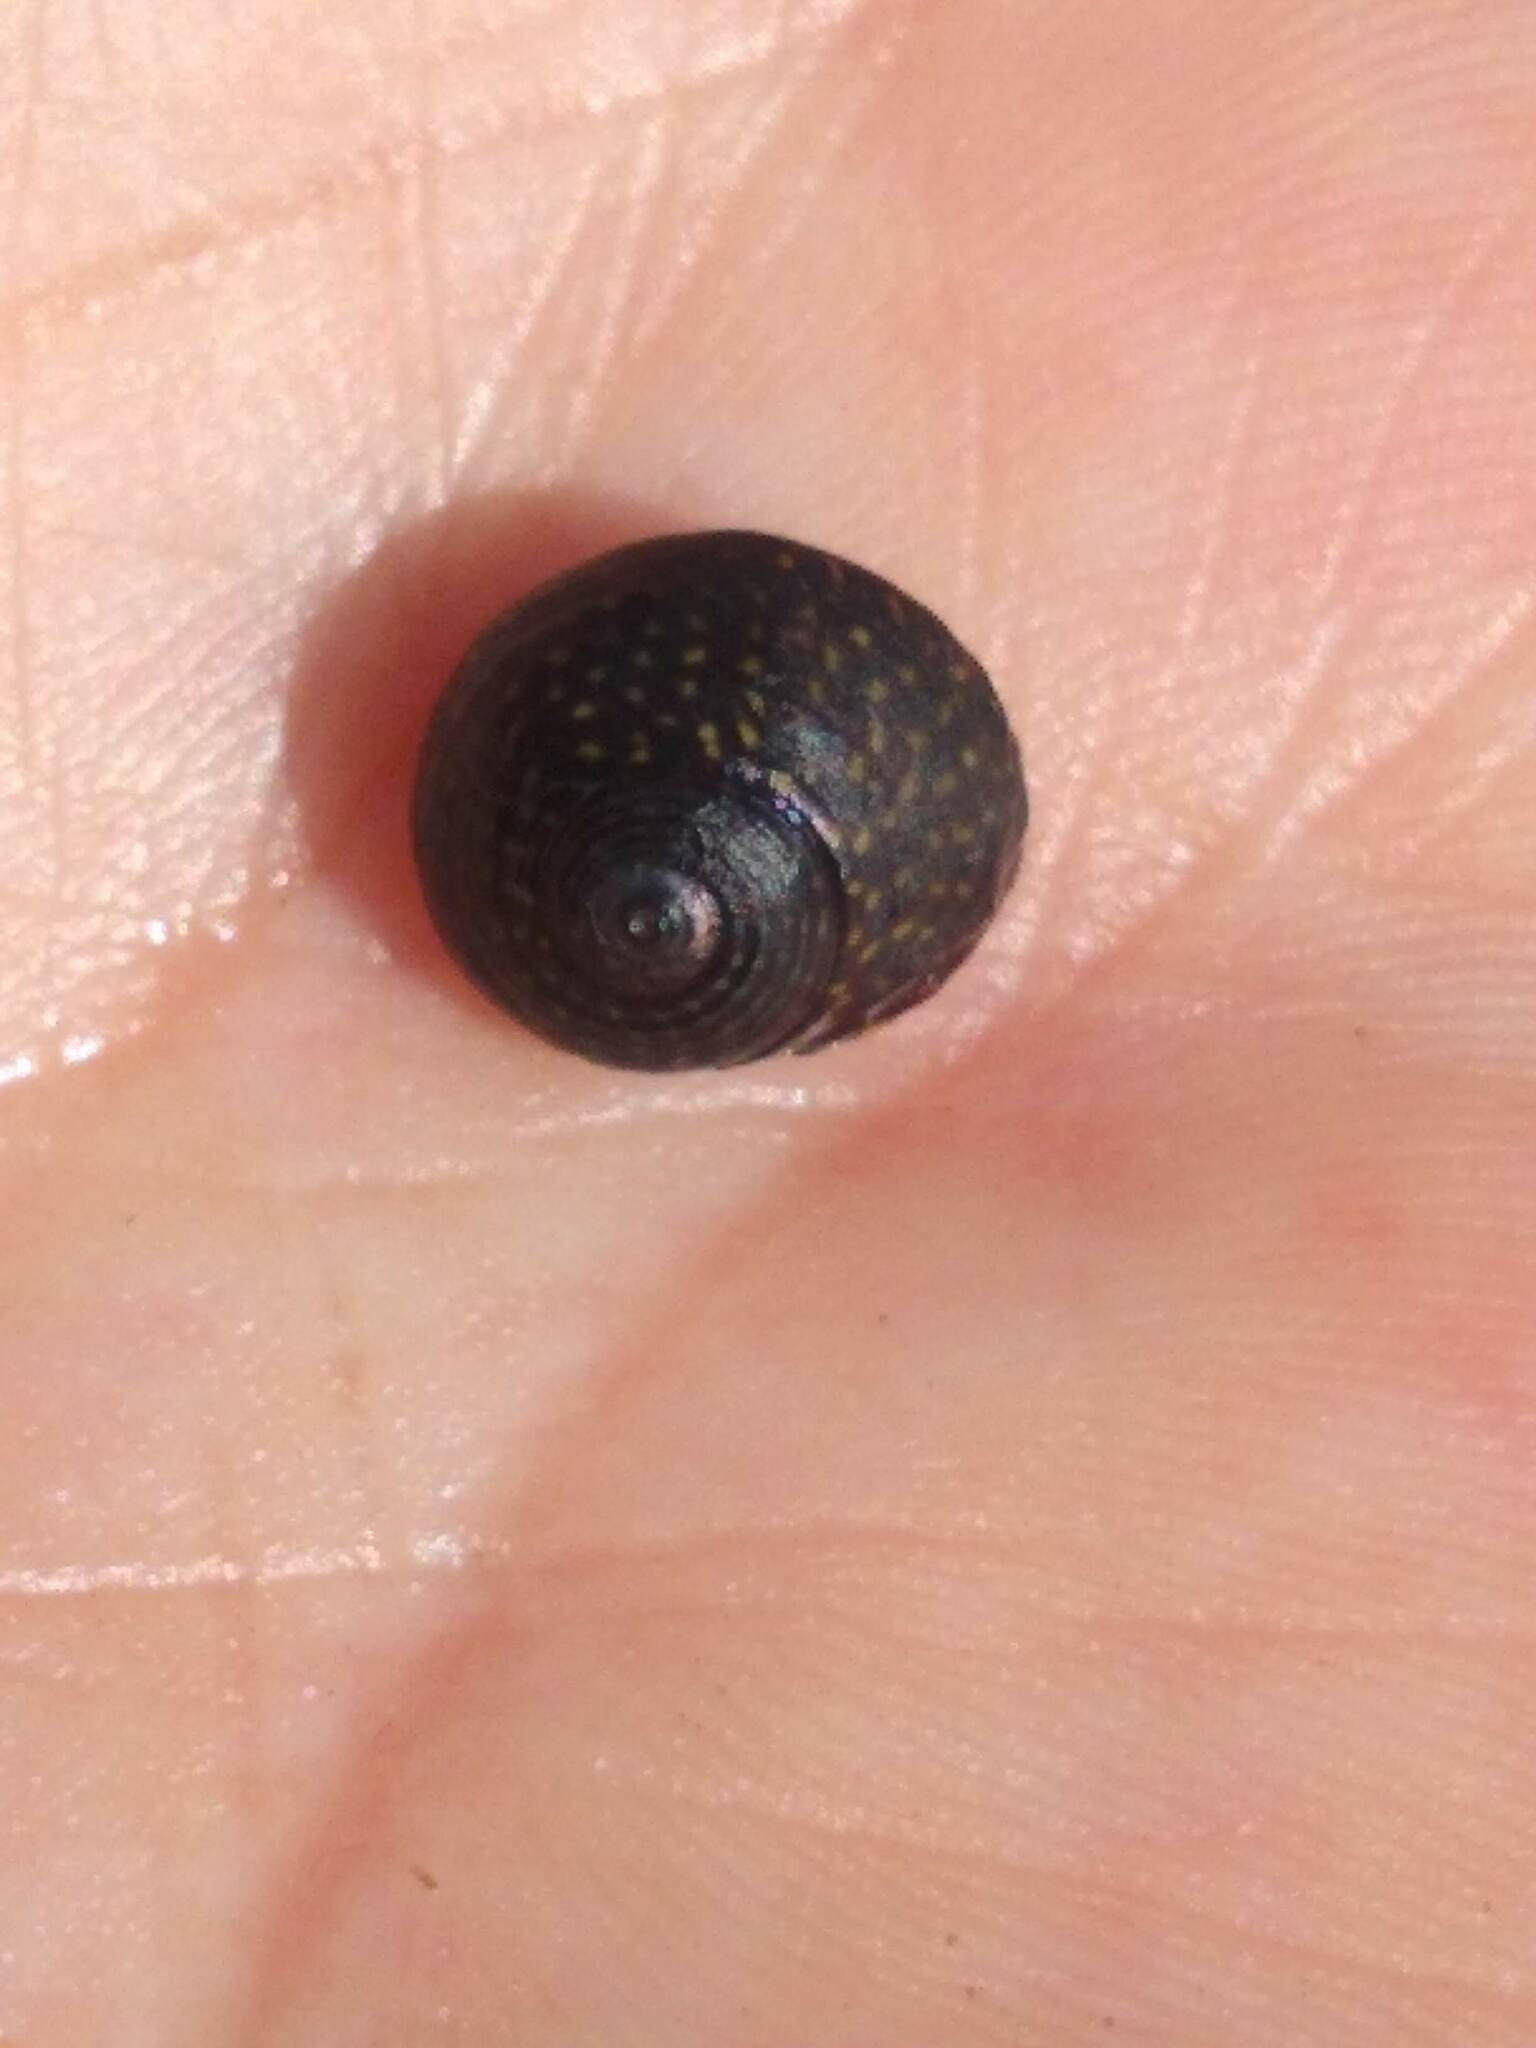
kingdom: Animalia
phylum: Mollusca
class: Gastropoda
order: Trochida
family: Trochidae
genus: Diloma
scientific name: Diloma aridum
